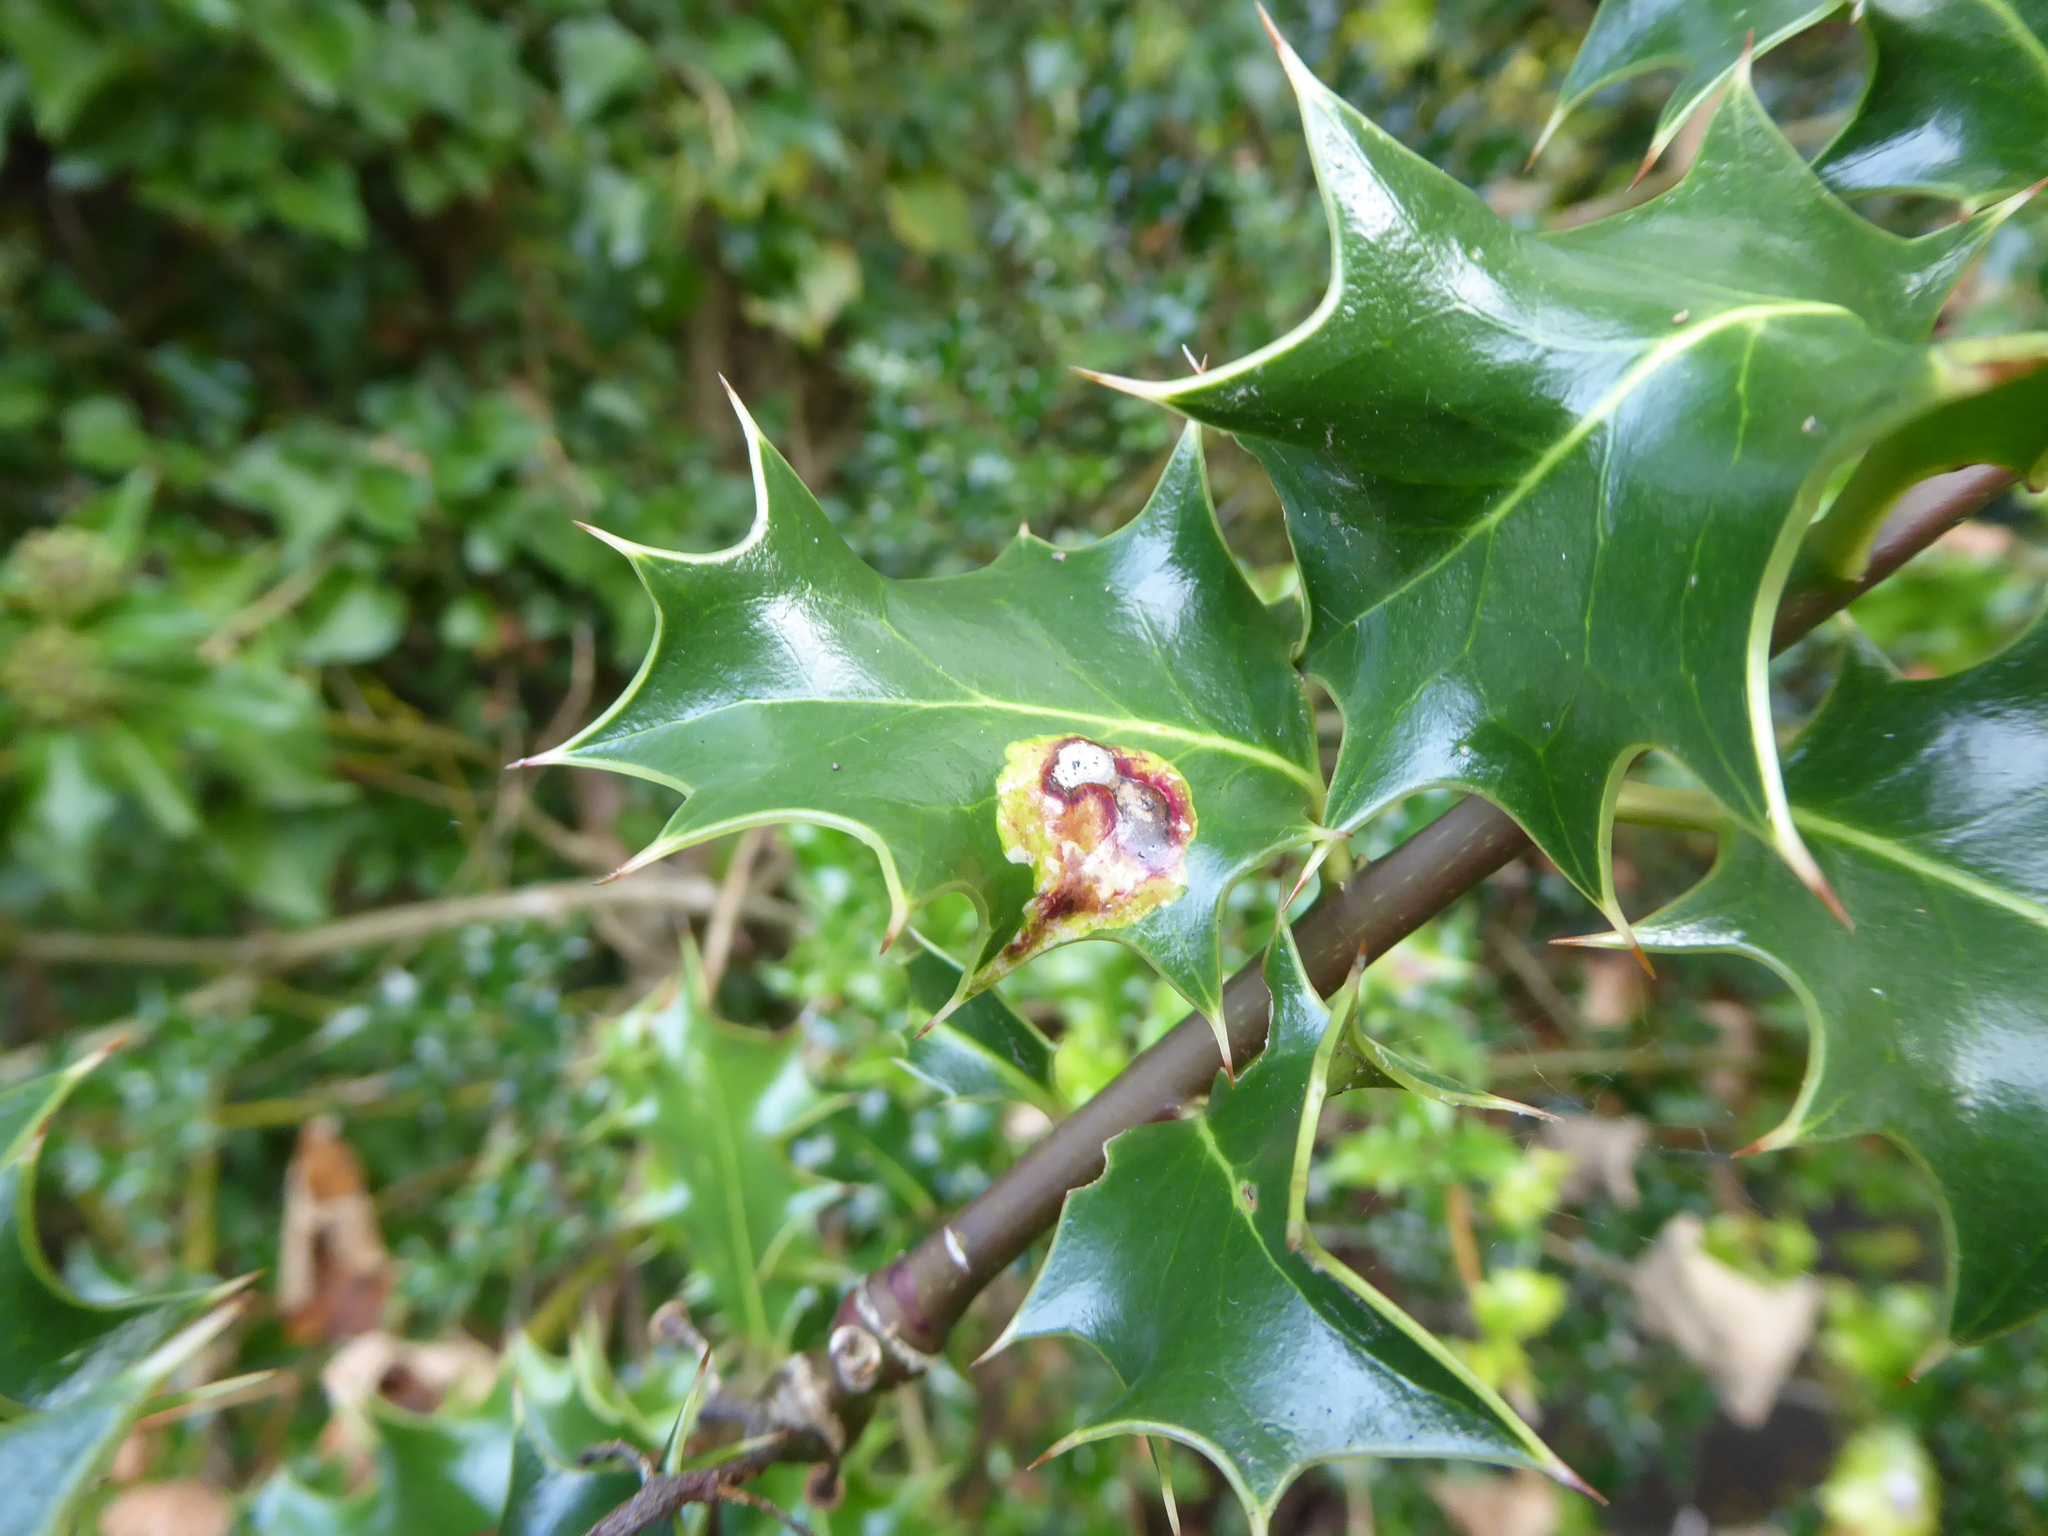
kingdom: Animalia
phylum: Arthropoda
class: Insecta
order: Diptera
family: Agromyzidae
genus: Phytomyza
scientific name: Phytomyza ilicis
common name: Holly leafminer
